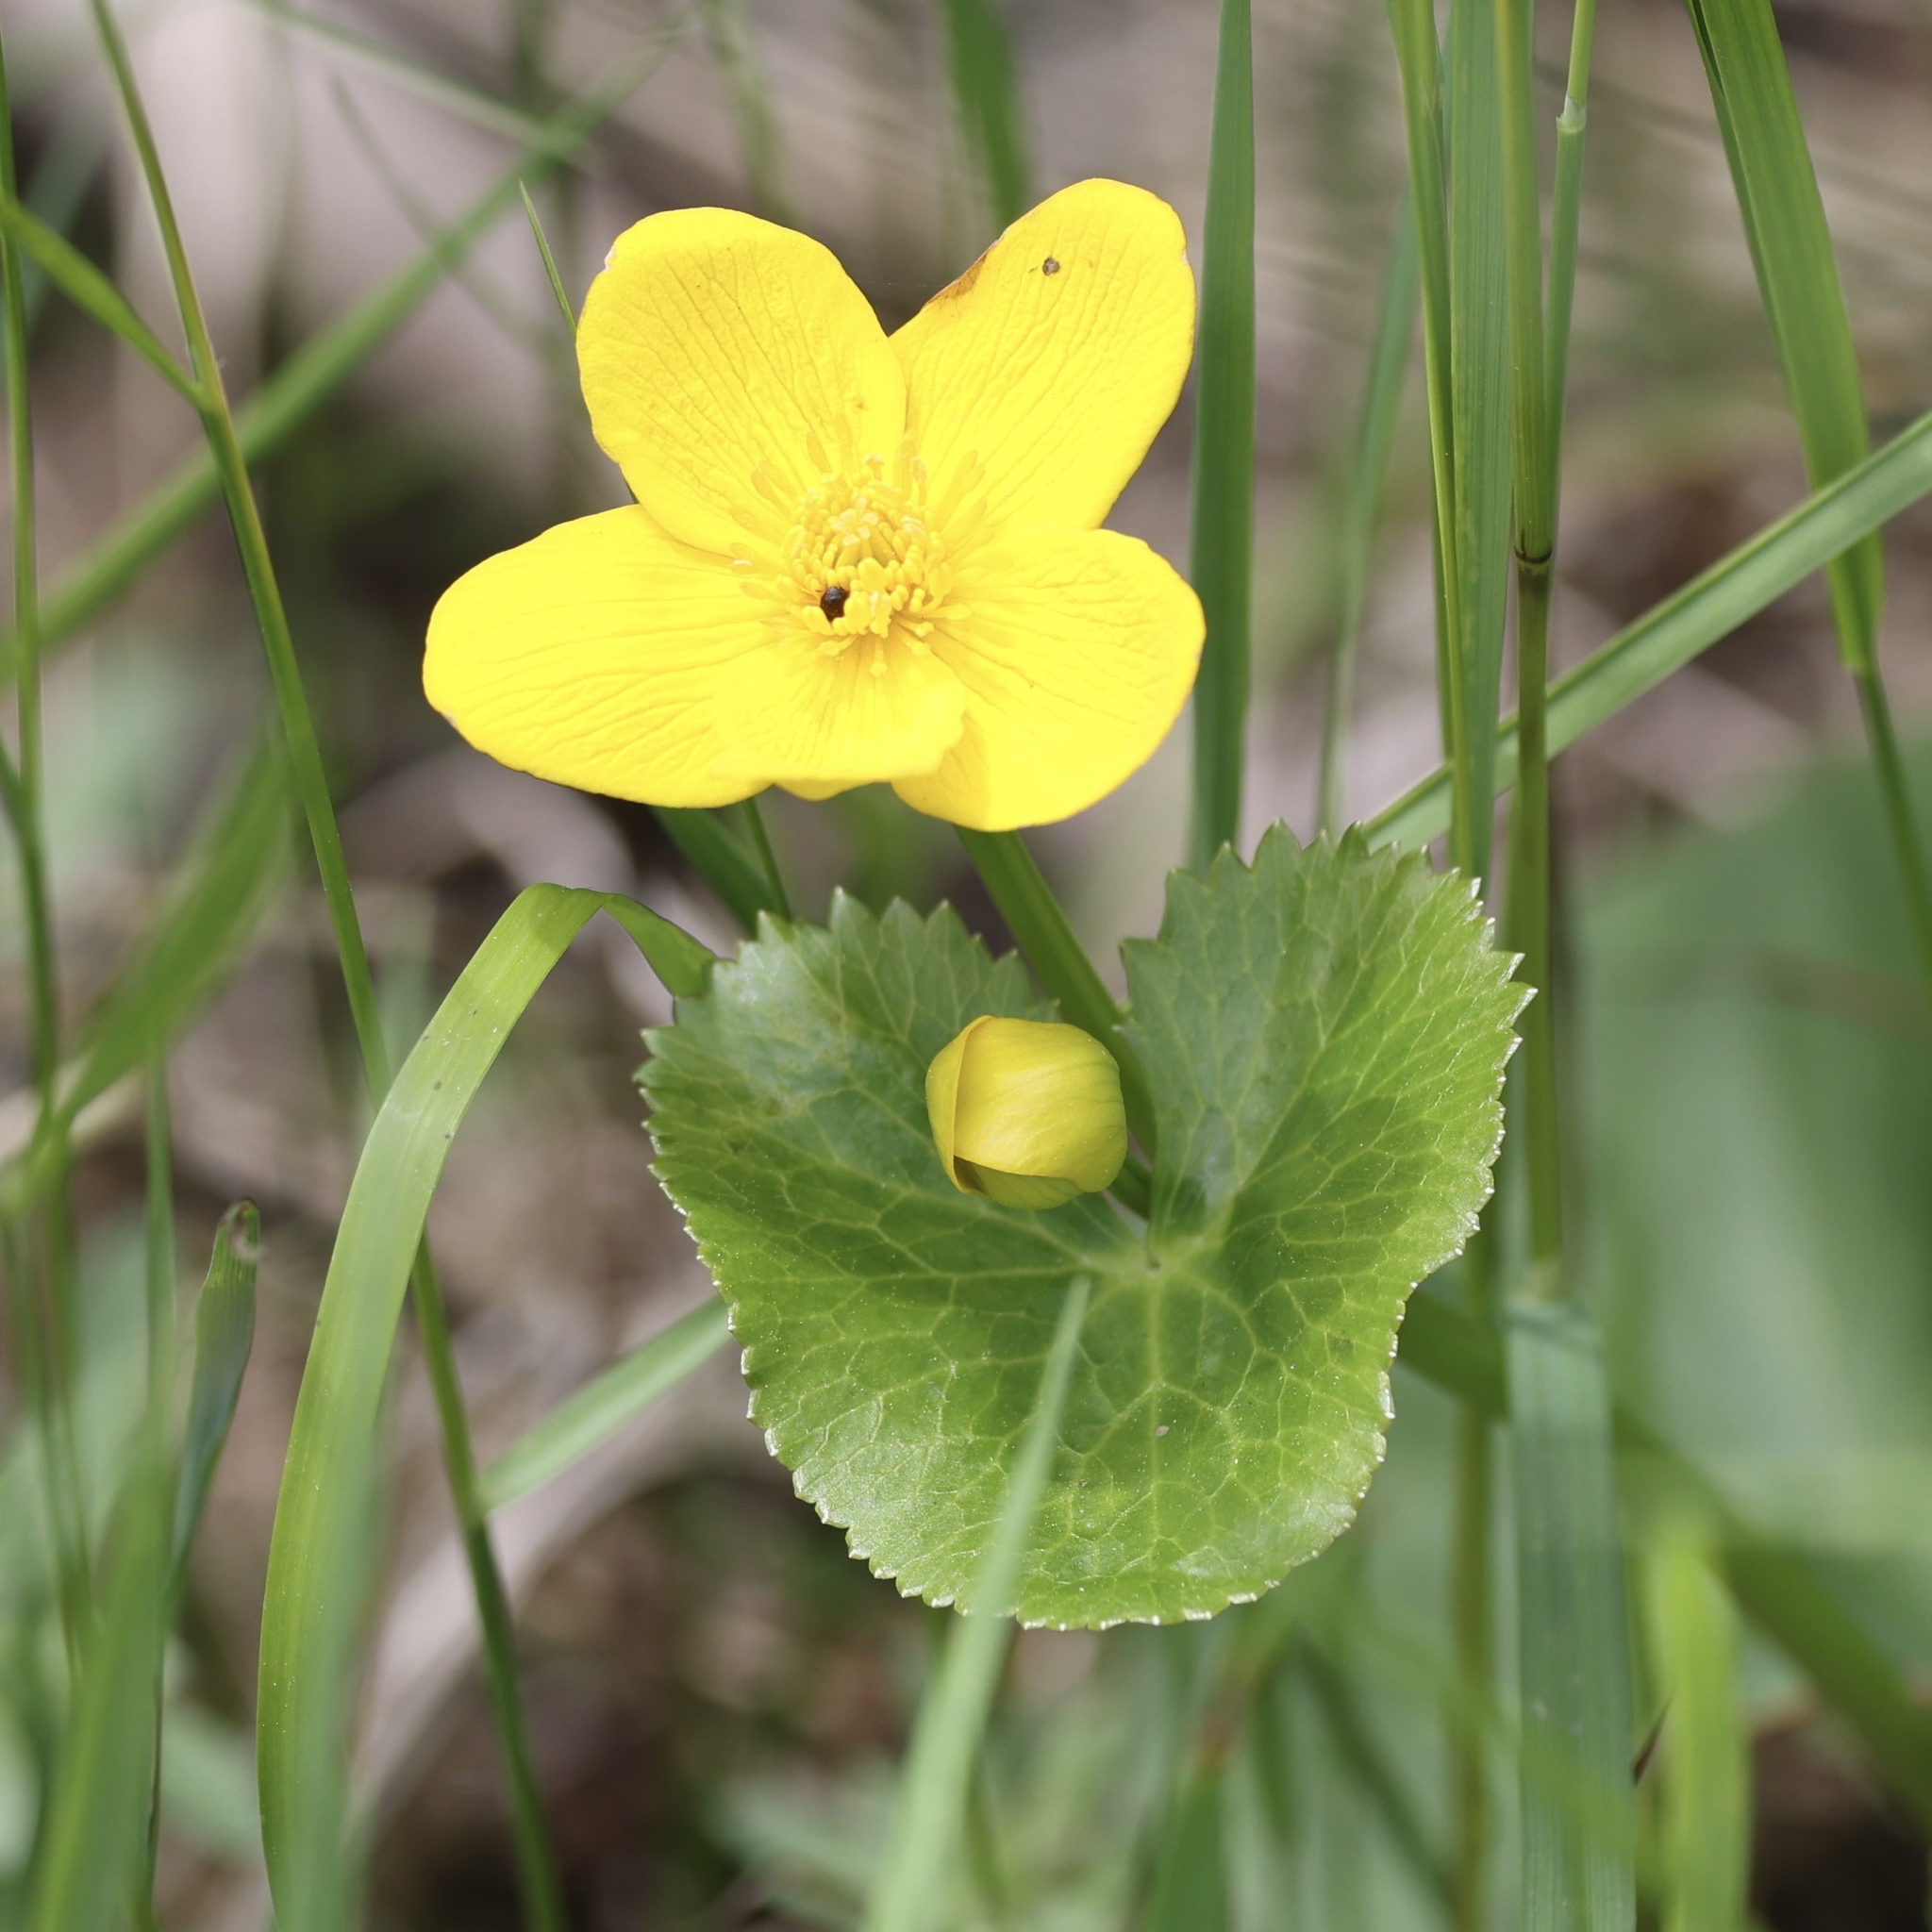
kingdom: Plantae
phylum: Tracheophyta
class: Magnoliopsida
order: Ranunculales
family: Ranunculaceae
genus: Caltha
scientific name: Caltha palustris
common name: Marsh marigold
